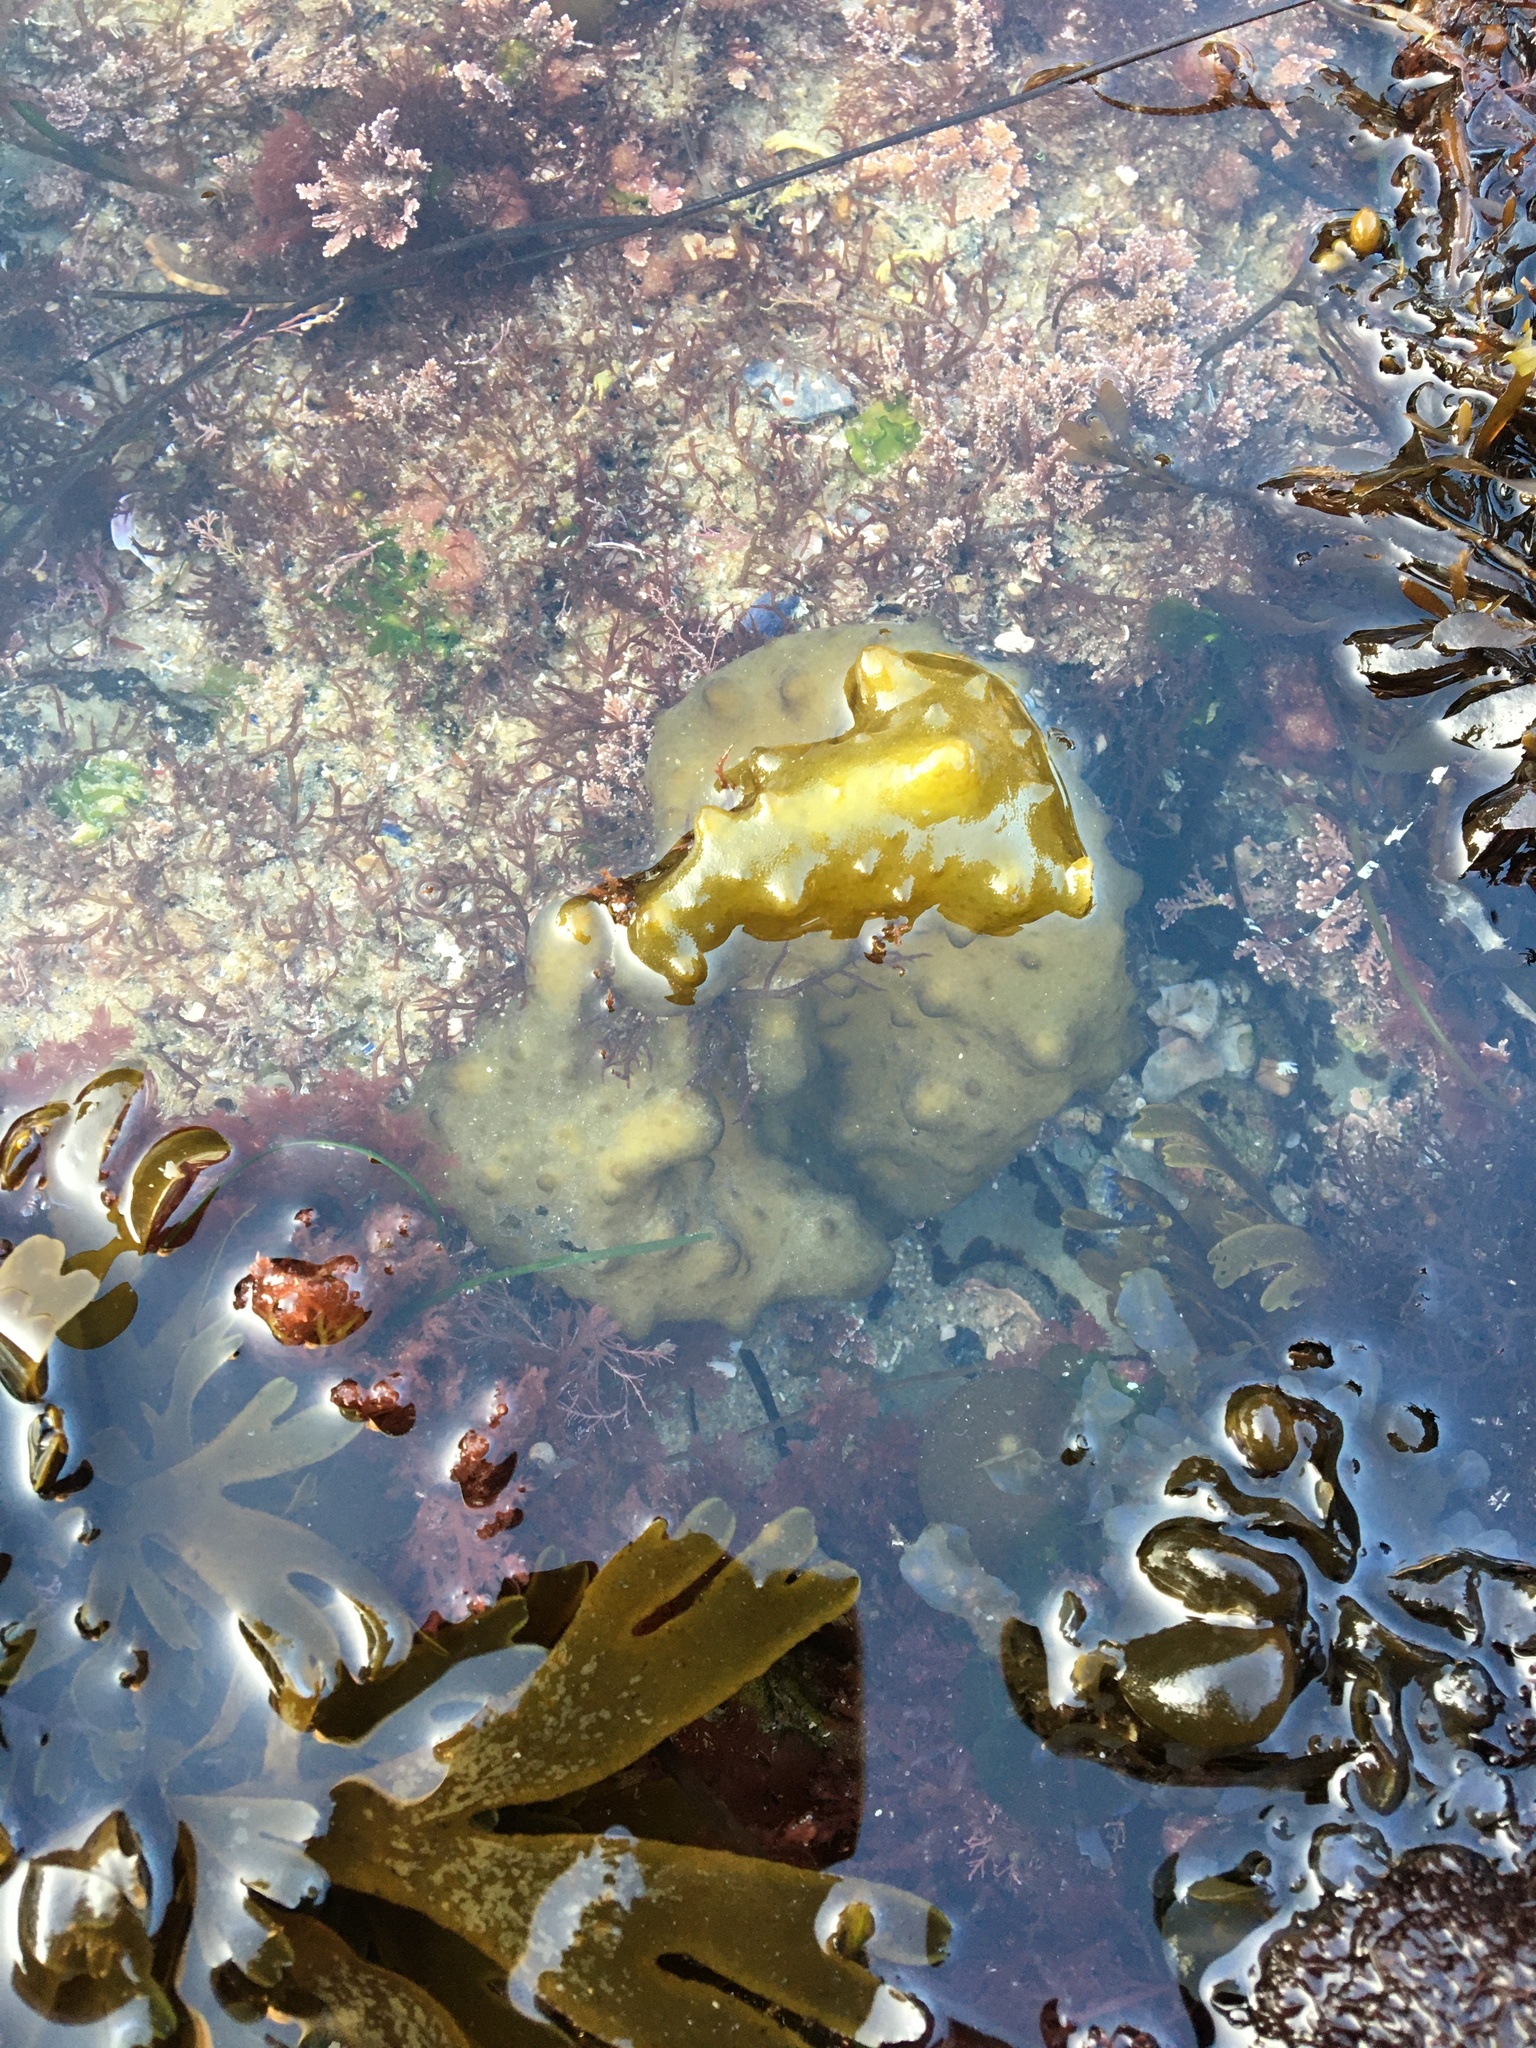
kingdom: Chromista
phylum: Ochrophyta
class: Phaeophyceae
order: Scytosiphonales
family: Scytosiphonaceae
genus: Colpomenia
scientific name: Colpomenia sinuosa
